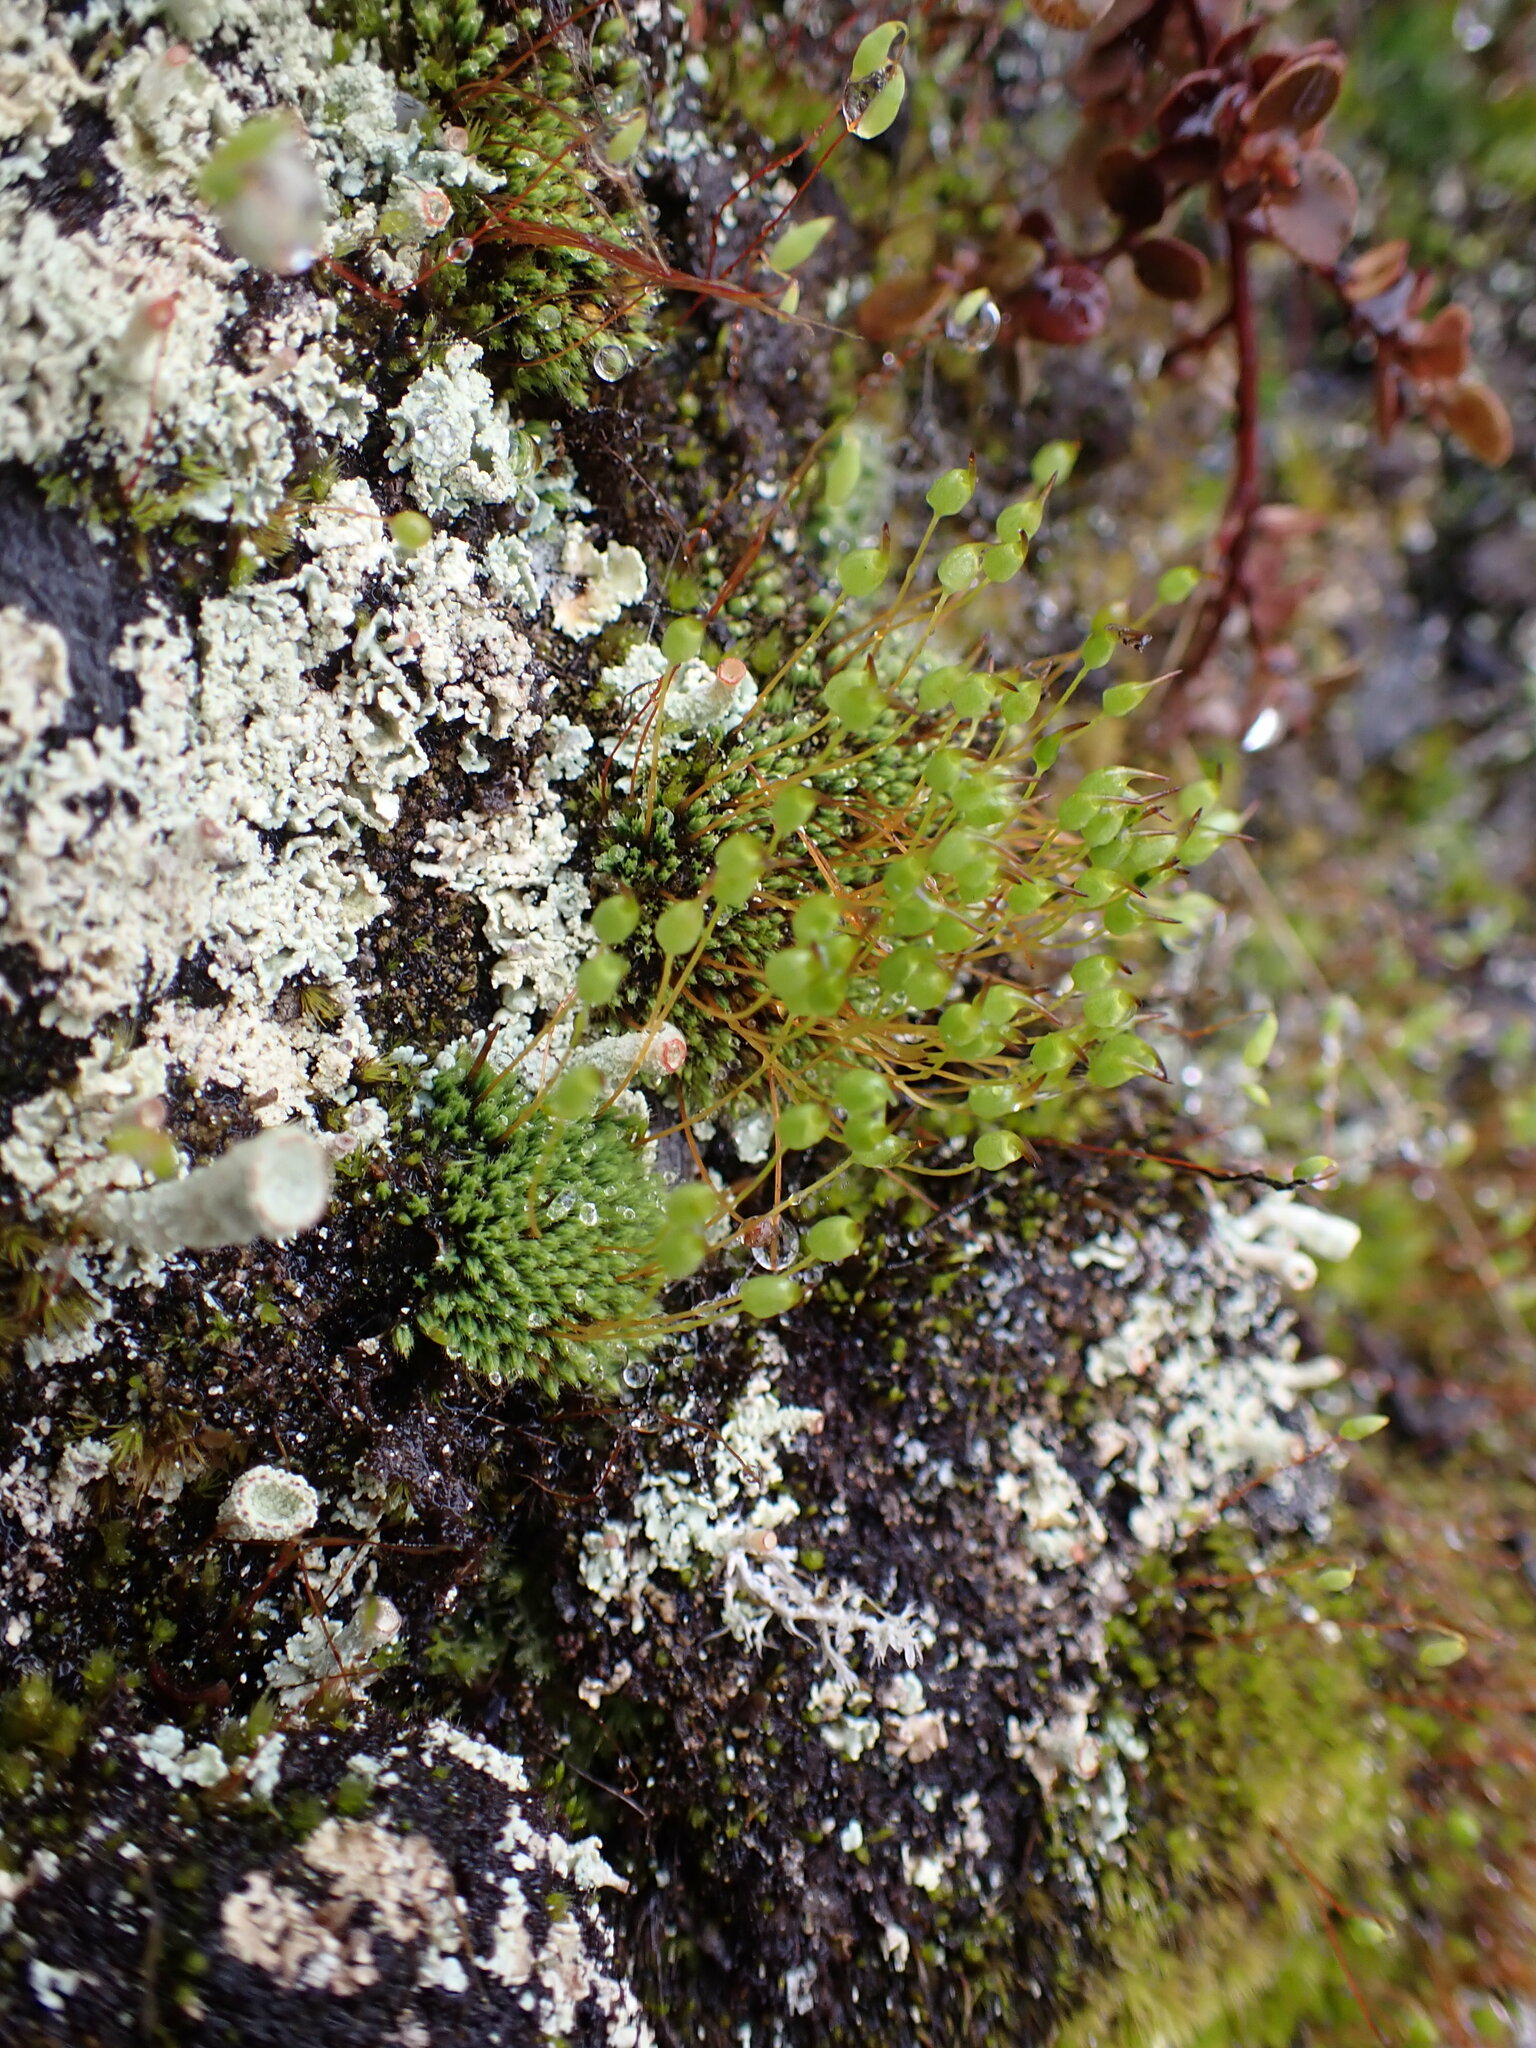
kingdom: Plantae
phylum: Bryophyta
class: Bryopsida
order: Bartramiales
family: Bartramiaceae
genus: Conostomum
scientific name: Conostomum pentastichum
